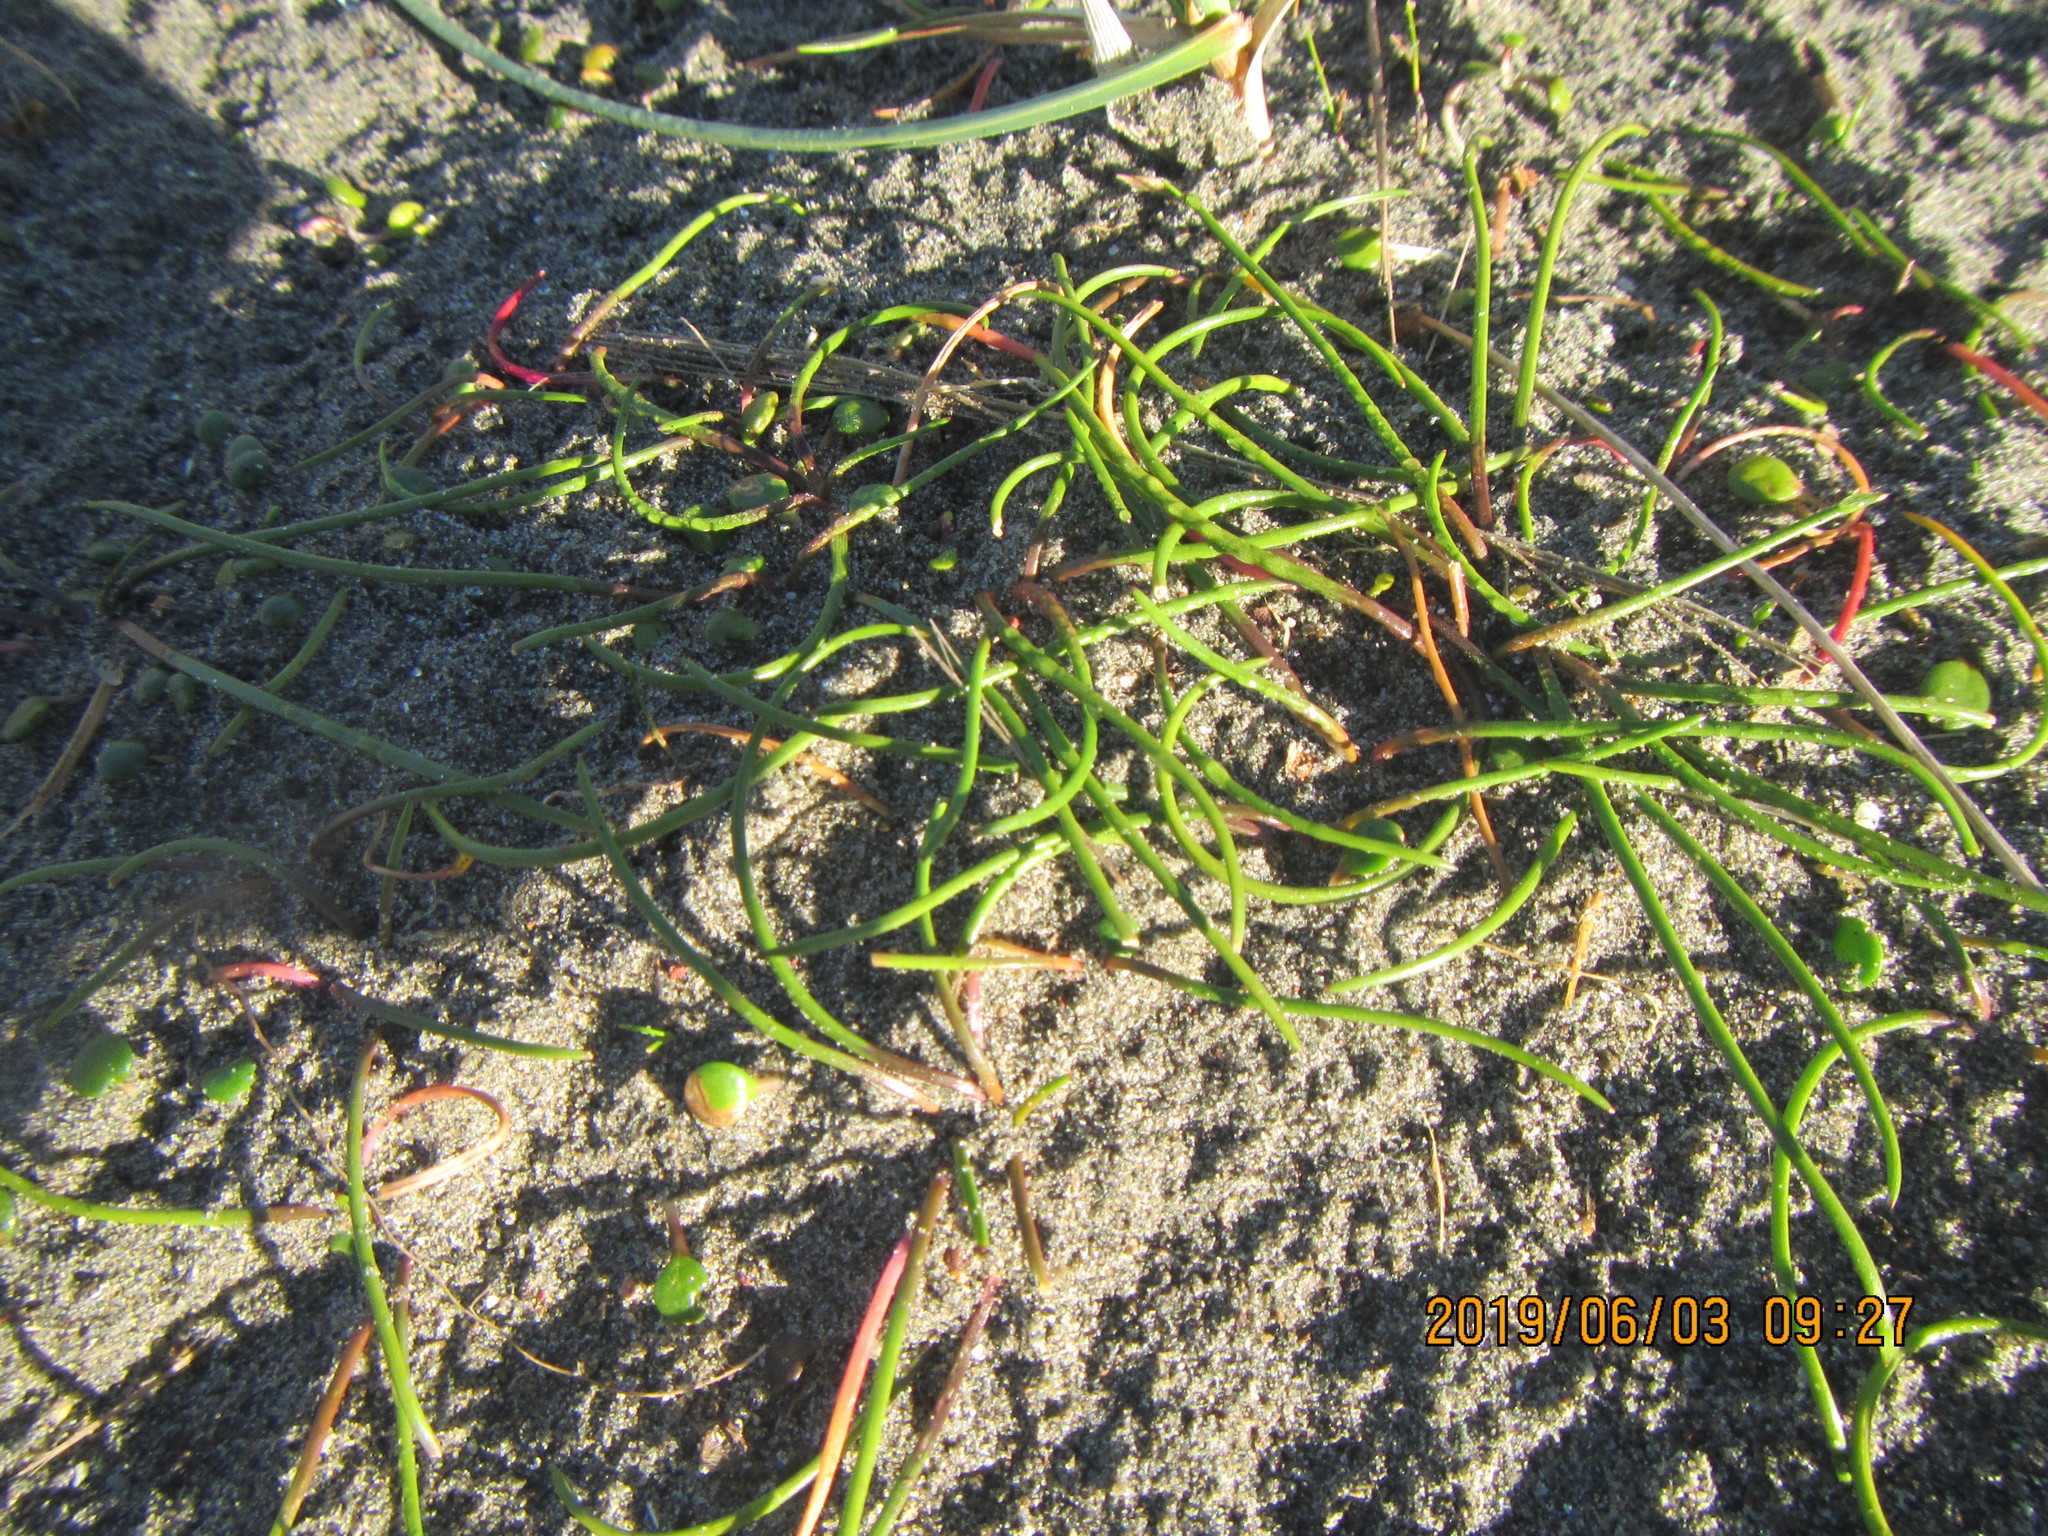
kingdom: Plantae
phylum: Tracheophyta
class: Liliopsida
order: Alismatales
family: Juncaginaceae
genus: Triglochin
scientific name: Triglochin striata
